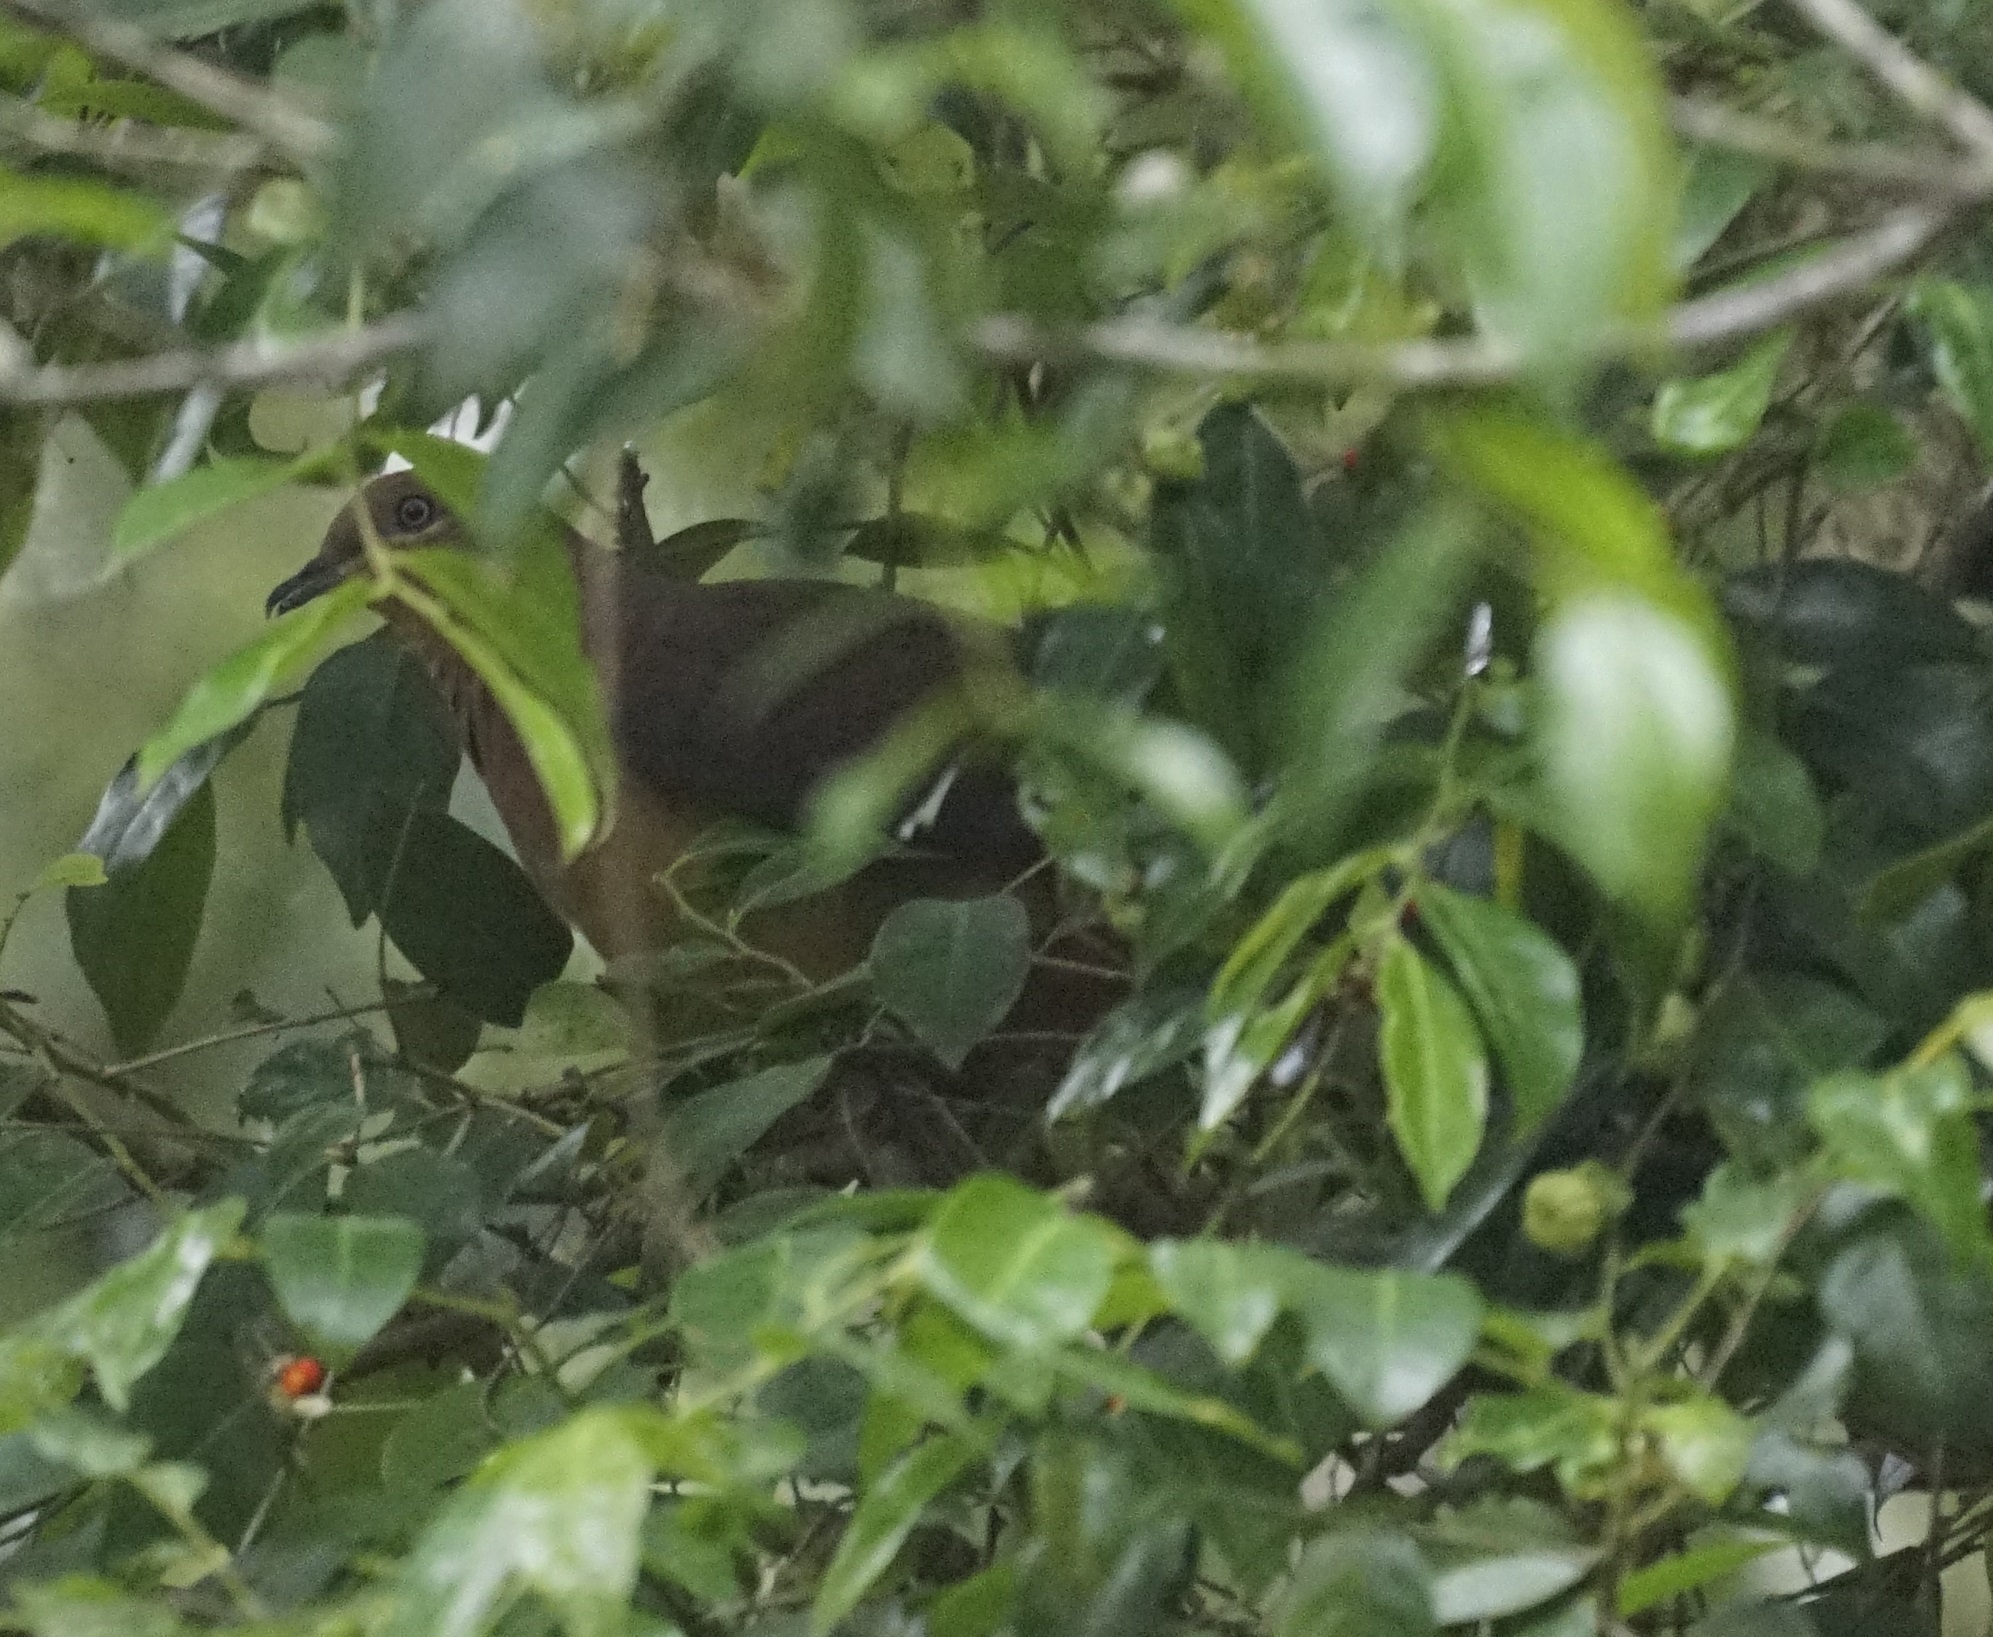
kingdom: Animalia
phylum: Chordata
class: Aves
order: Columbiformes
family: Columbidae
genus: Macropygia
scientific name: Macropygia phasianella
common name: Brown cuckoo-dove
